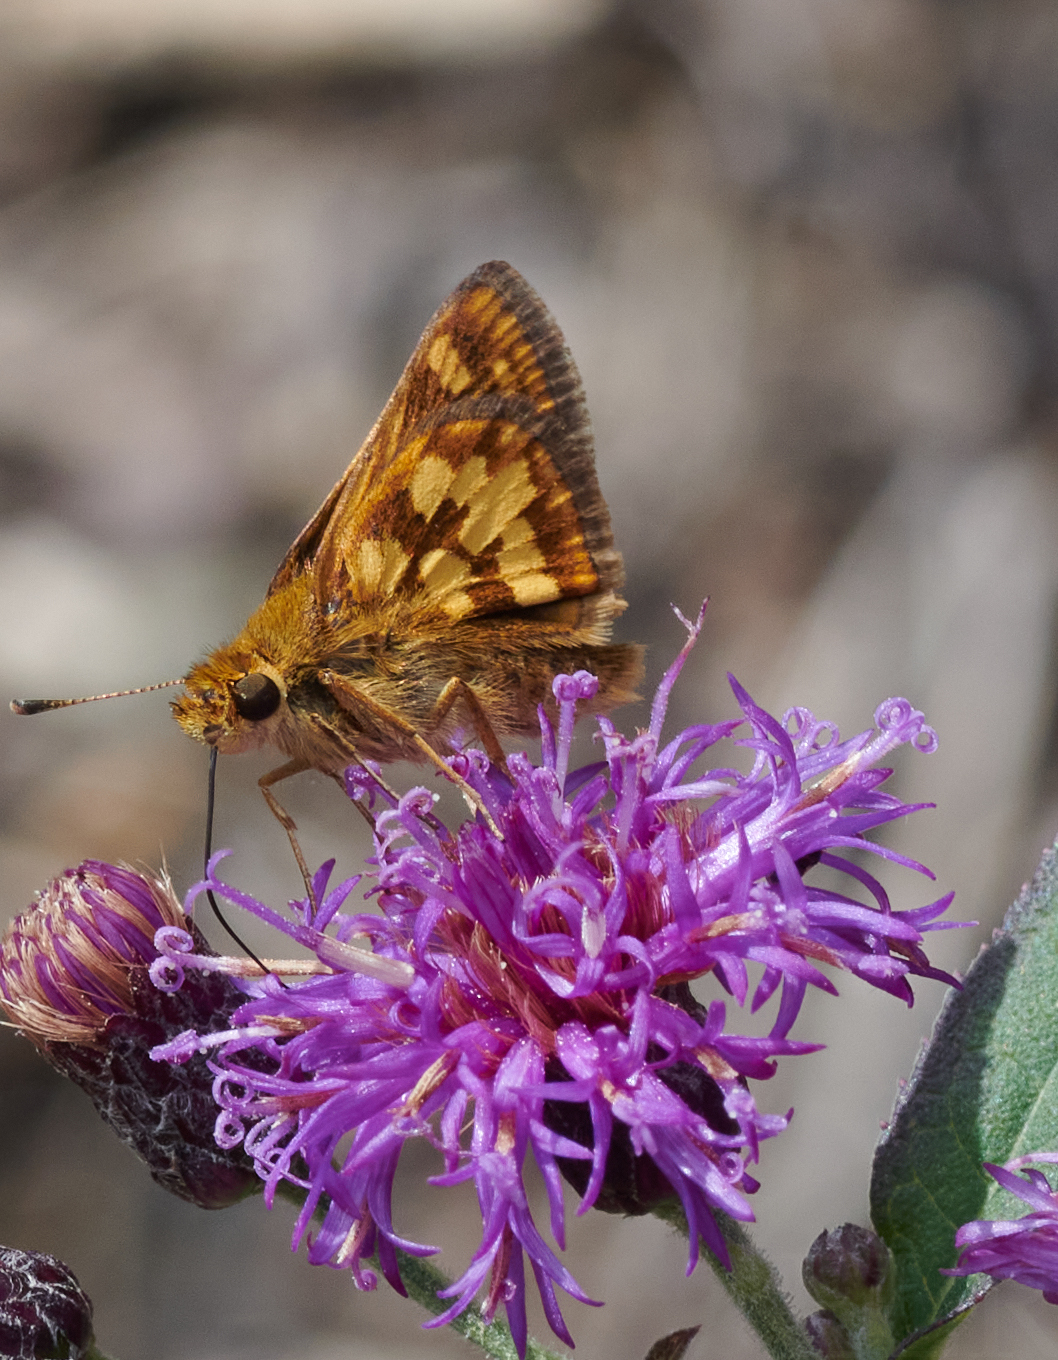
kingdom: Animalia
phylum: Arthropoda
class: Insecta
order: Lepidoptera
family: Hesperiidae
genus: Polites
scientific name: Polites coras
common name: Peck's skipper
